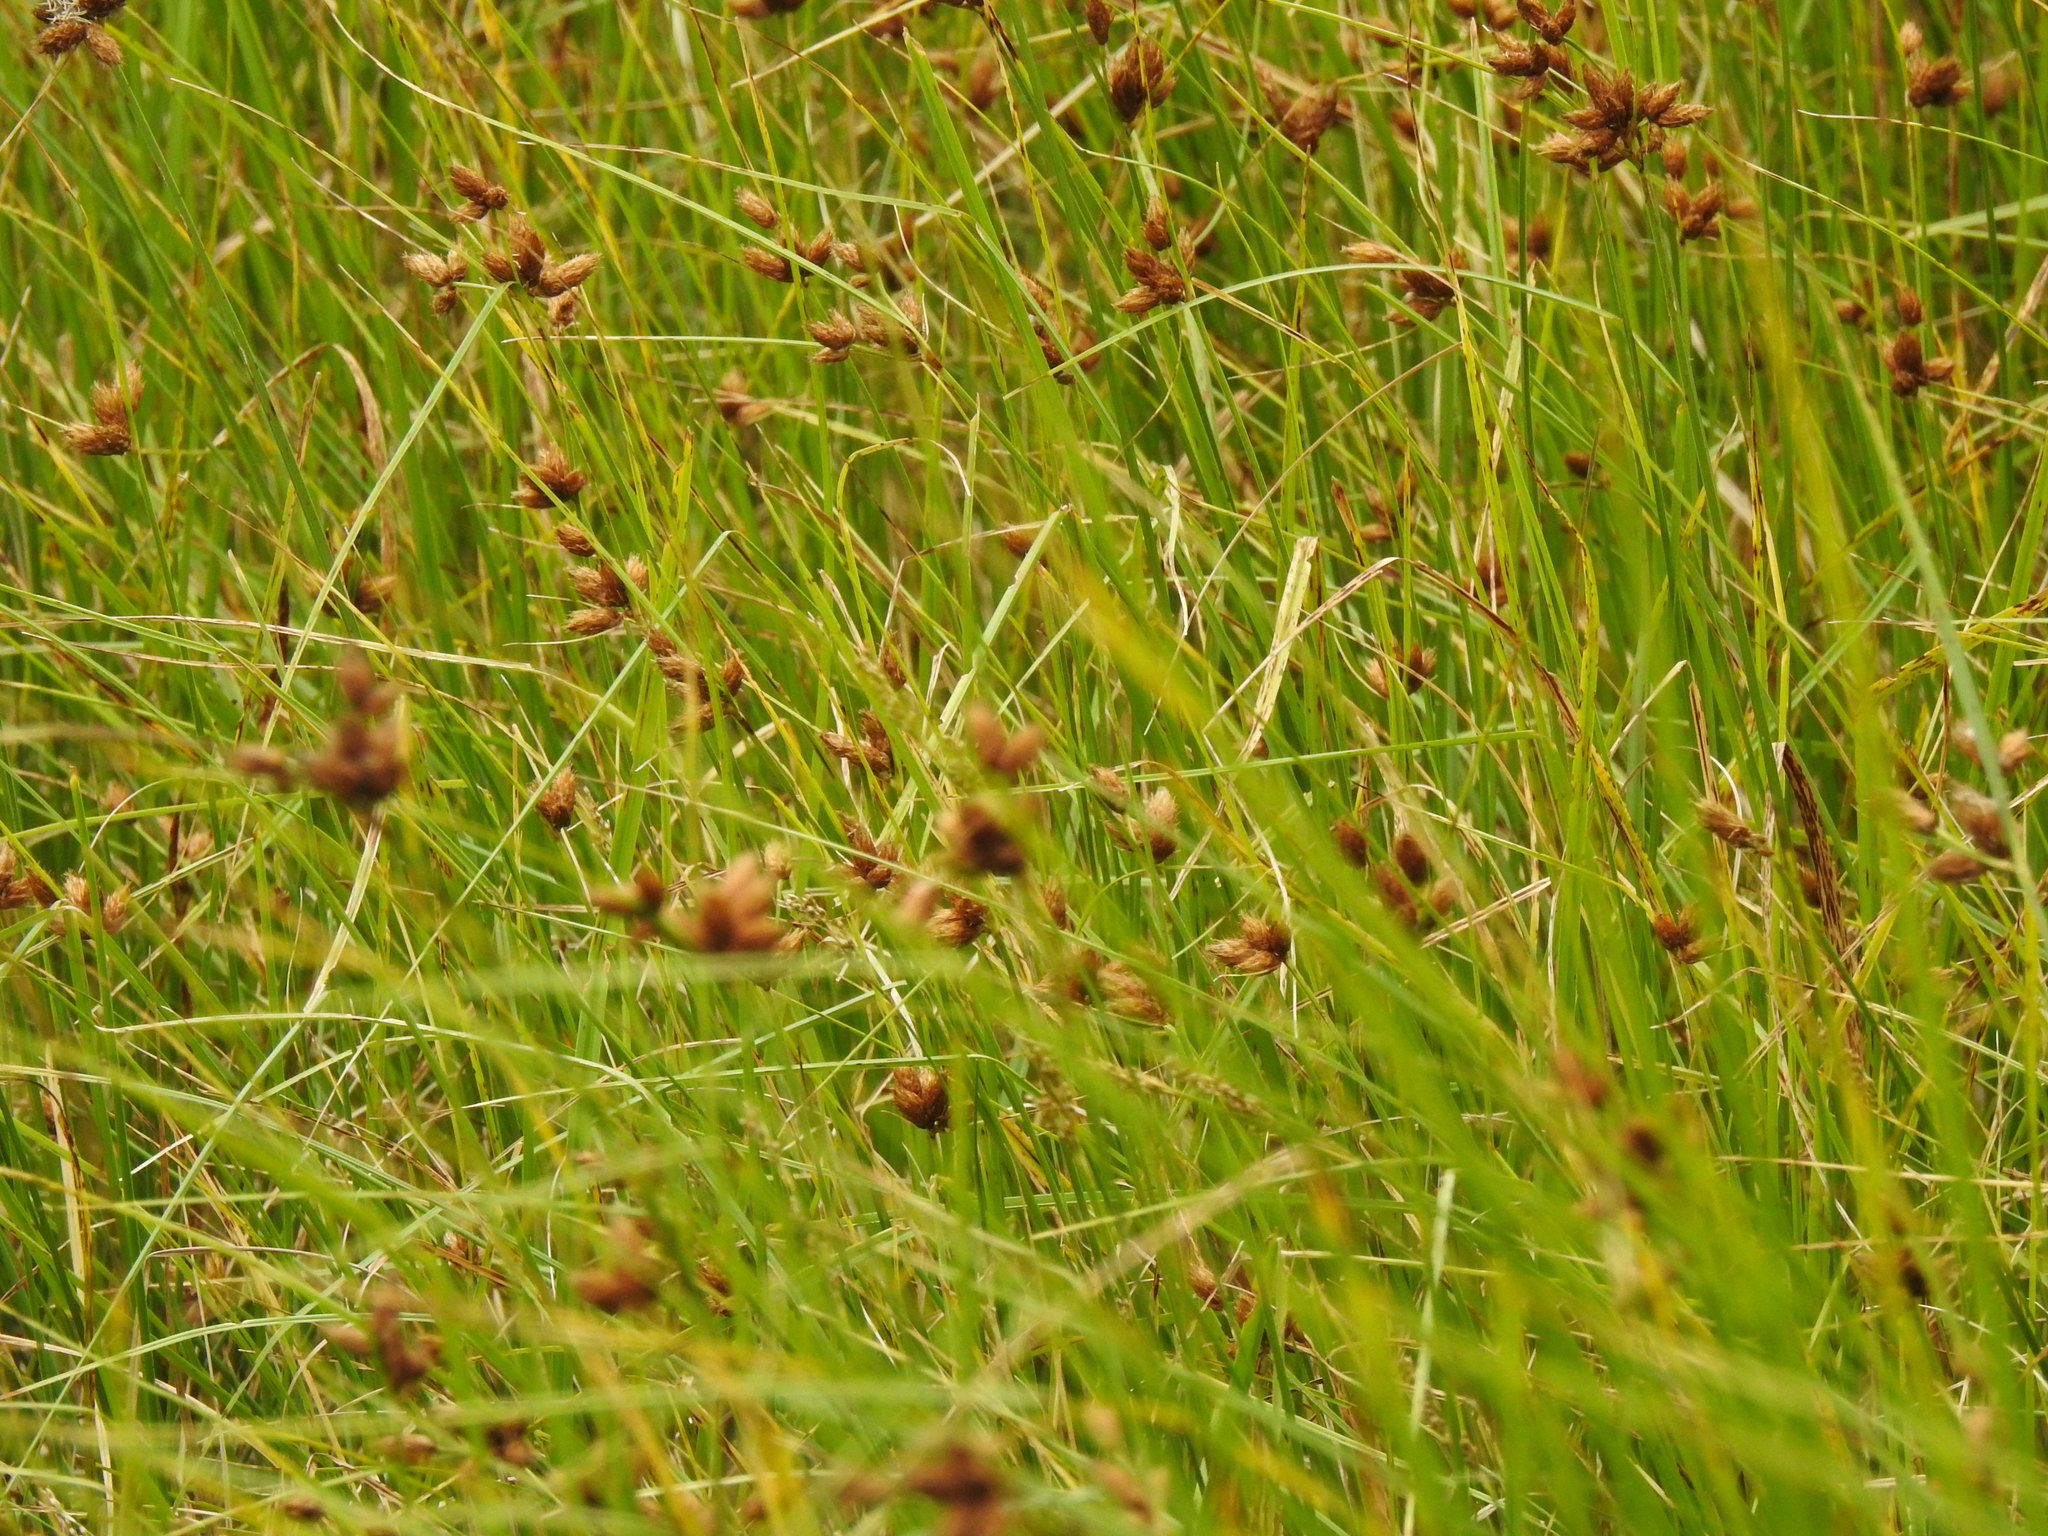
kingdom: Plantae
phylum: Tracheophyta
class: Liliopsida
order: Poales
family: Cyperaceae
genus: Bolboschoenus
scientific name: Bolboschoenus maritimus
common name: Sea club-rush
